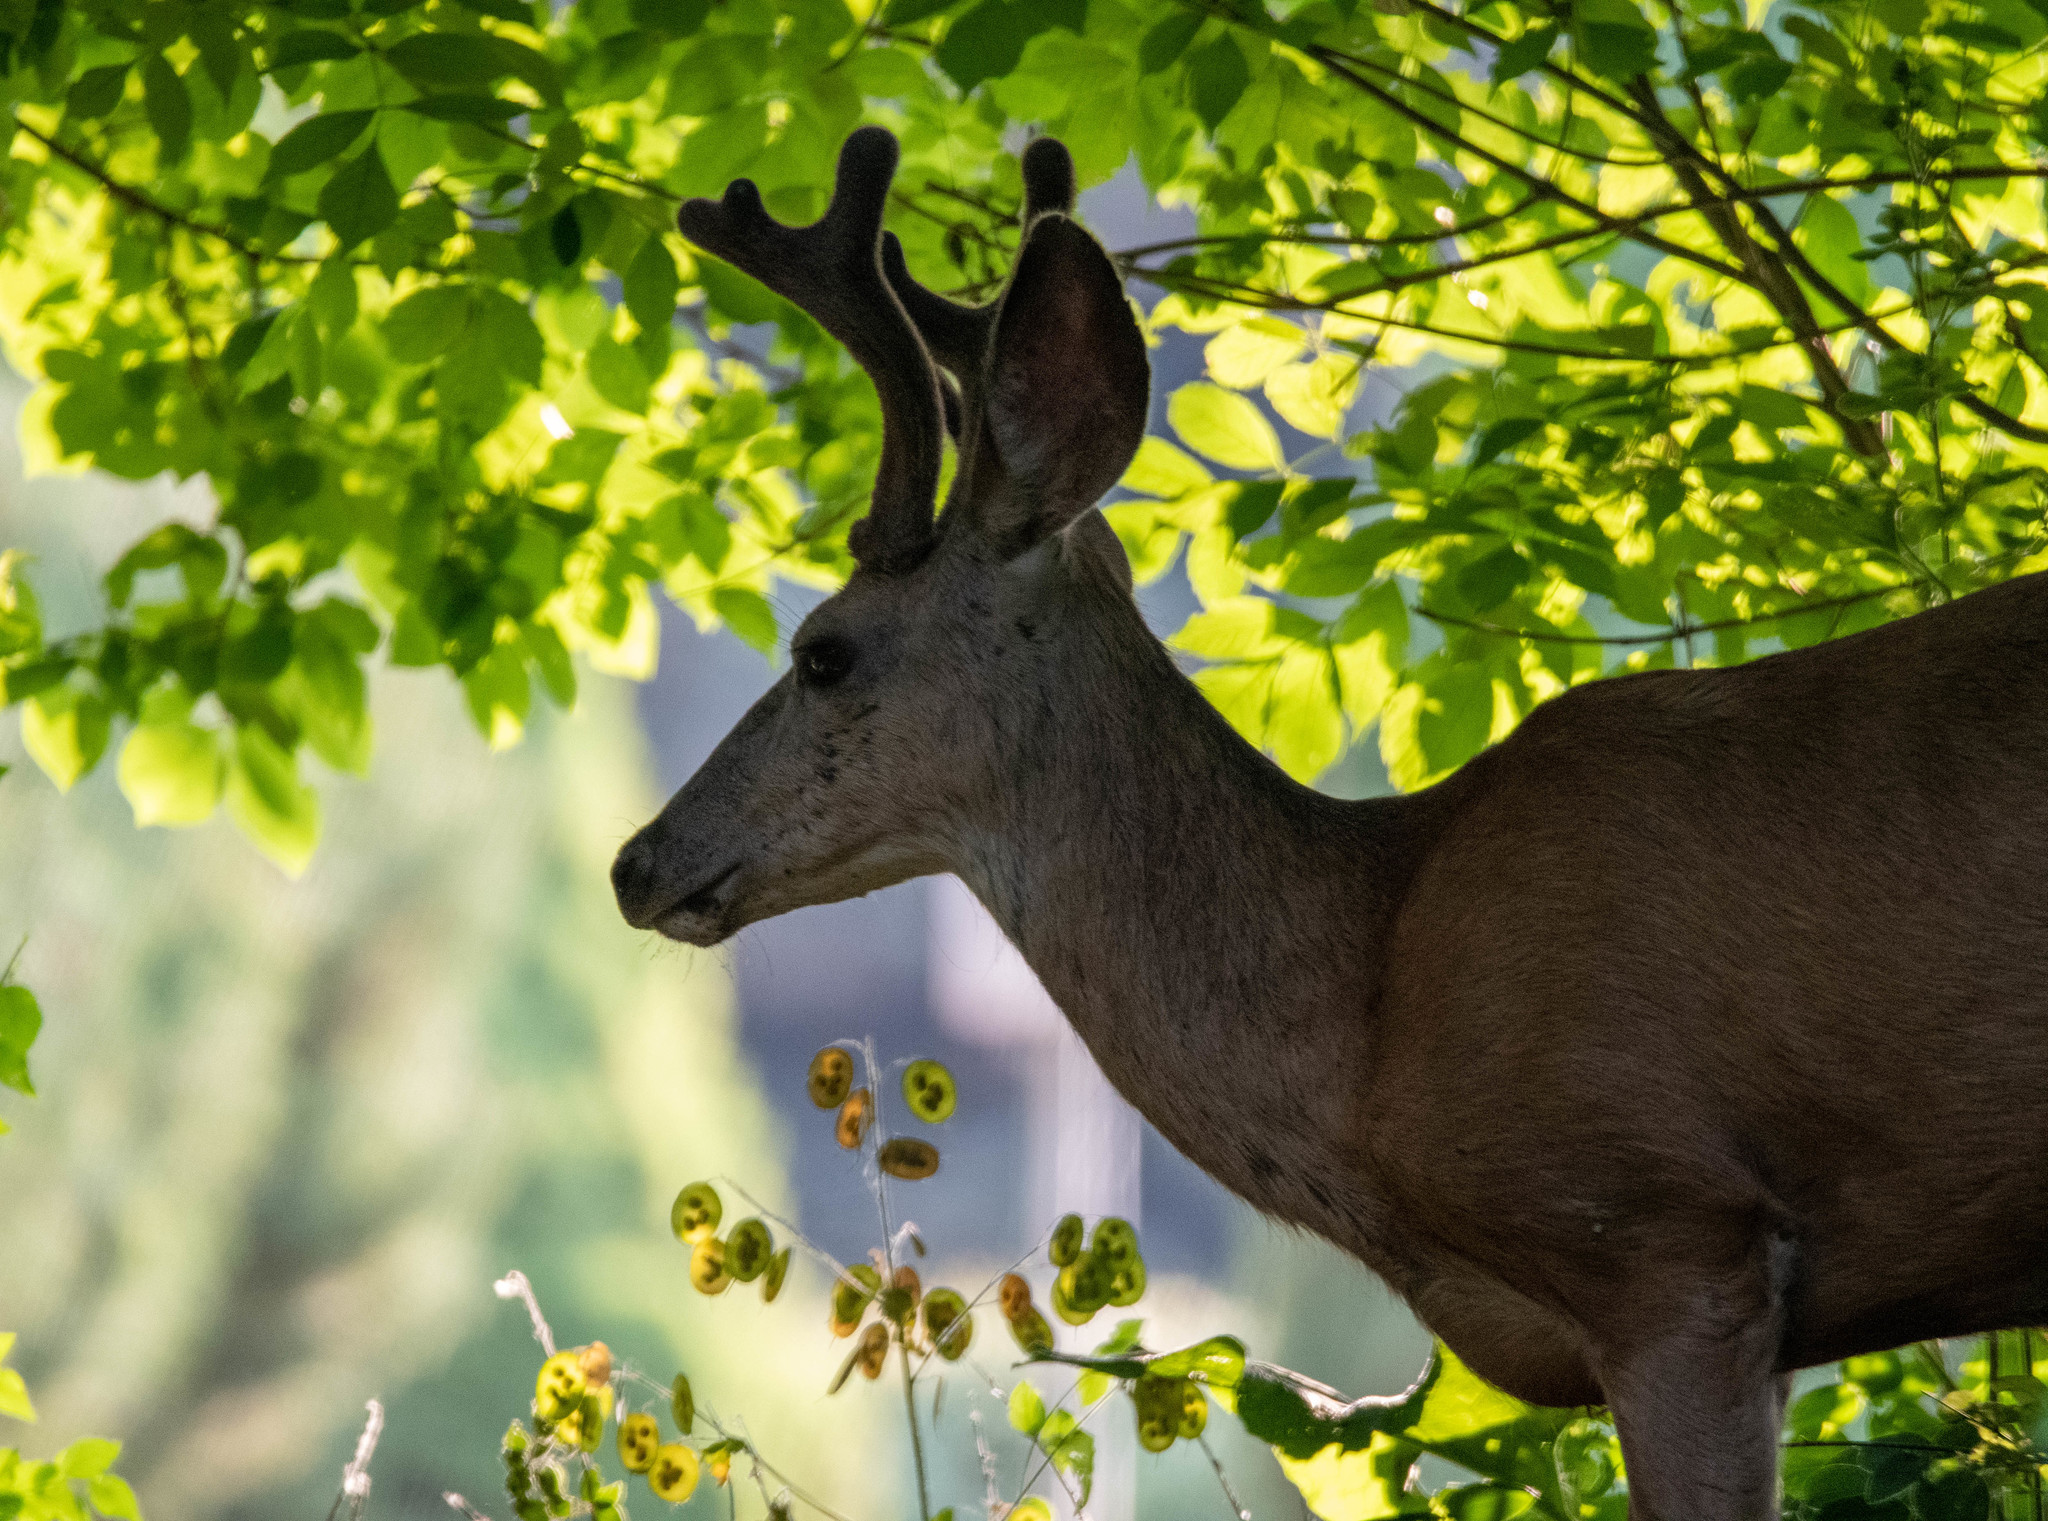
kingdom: Animalia
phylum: Chordata
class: Mammalia
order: Artiodactyla
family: Cervidae
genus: Odocoileus
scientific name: Odocoileus hemionus
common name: Mule deer
